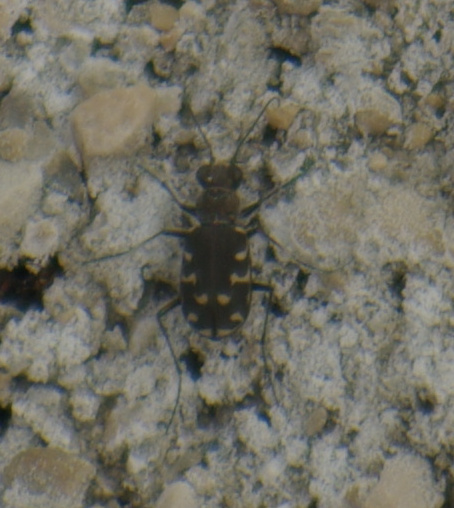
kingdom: Animalia
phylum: Arthropoda
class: Insecta
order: Coleoptera
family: Carabidae
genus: Cicindela
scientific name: Cicindela duodecimguttata
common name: Twelve-spotted tiger beetle
